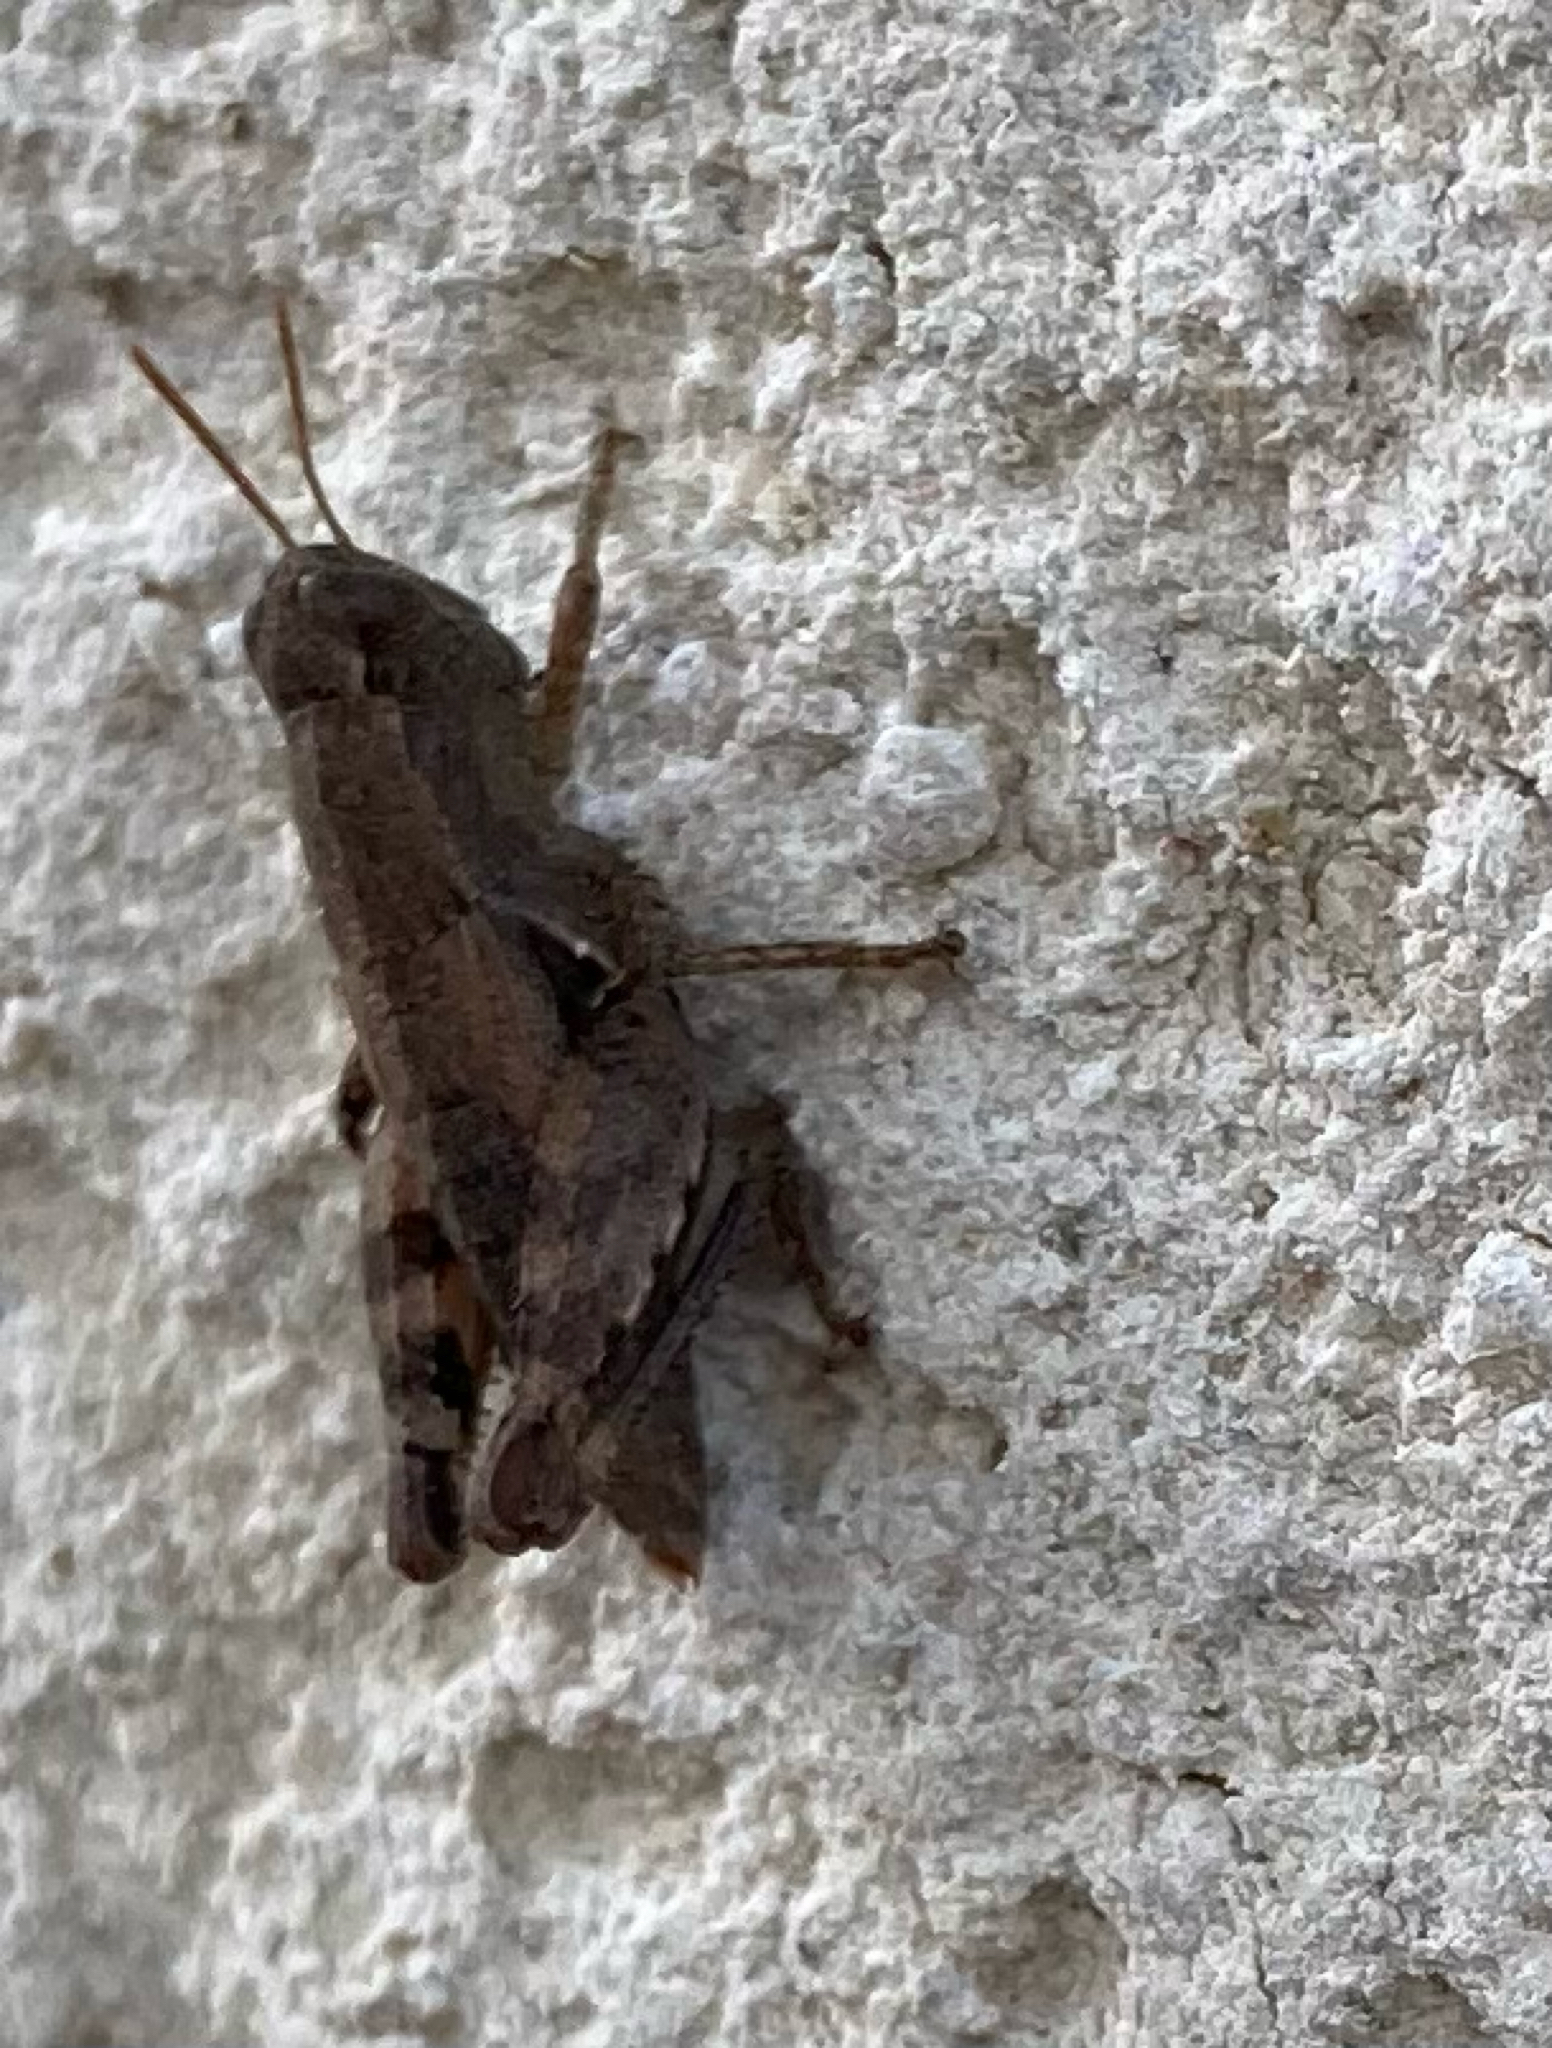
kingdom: Animalia
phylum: Arthropoda
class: Insecta
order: Orthoptera
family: Acrididae
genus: Pezotettix
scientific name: Pezotettix giornae
